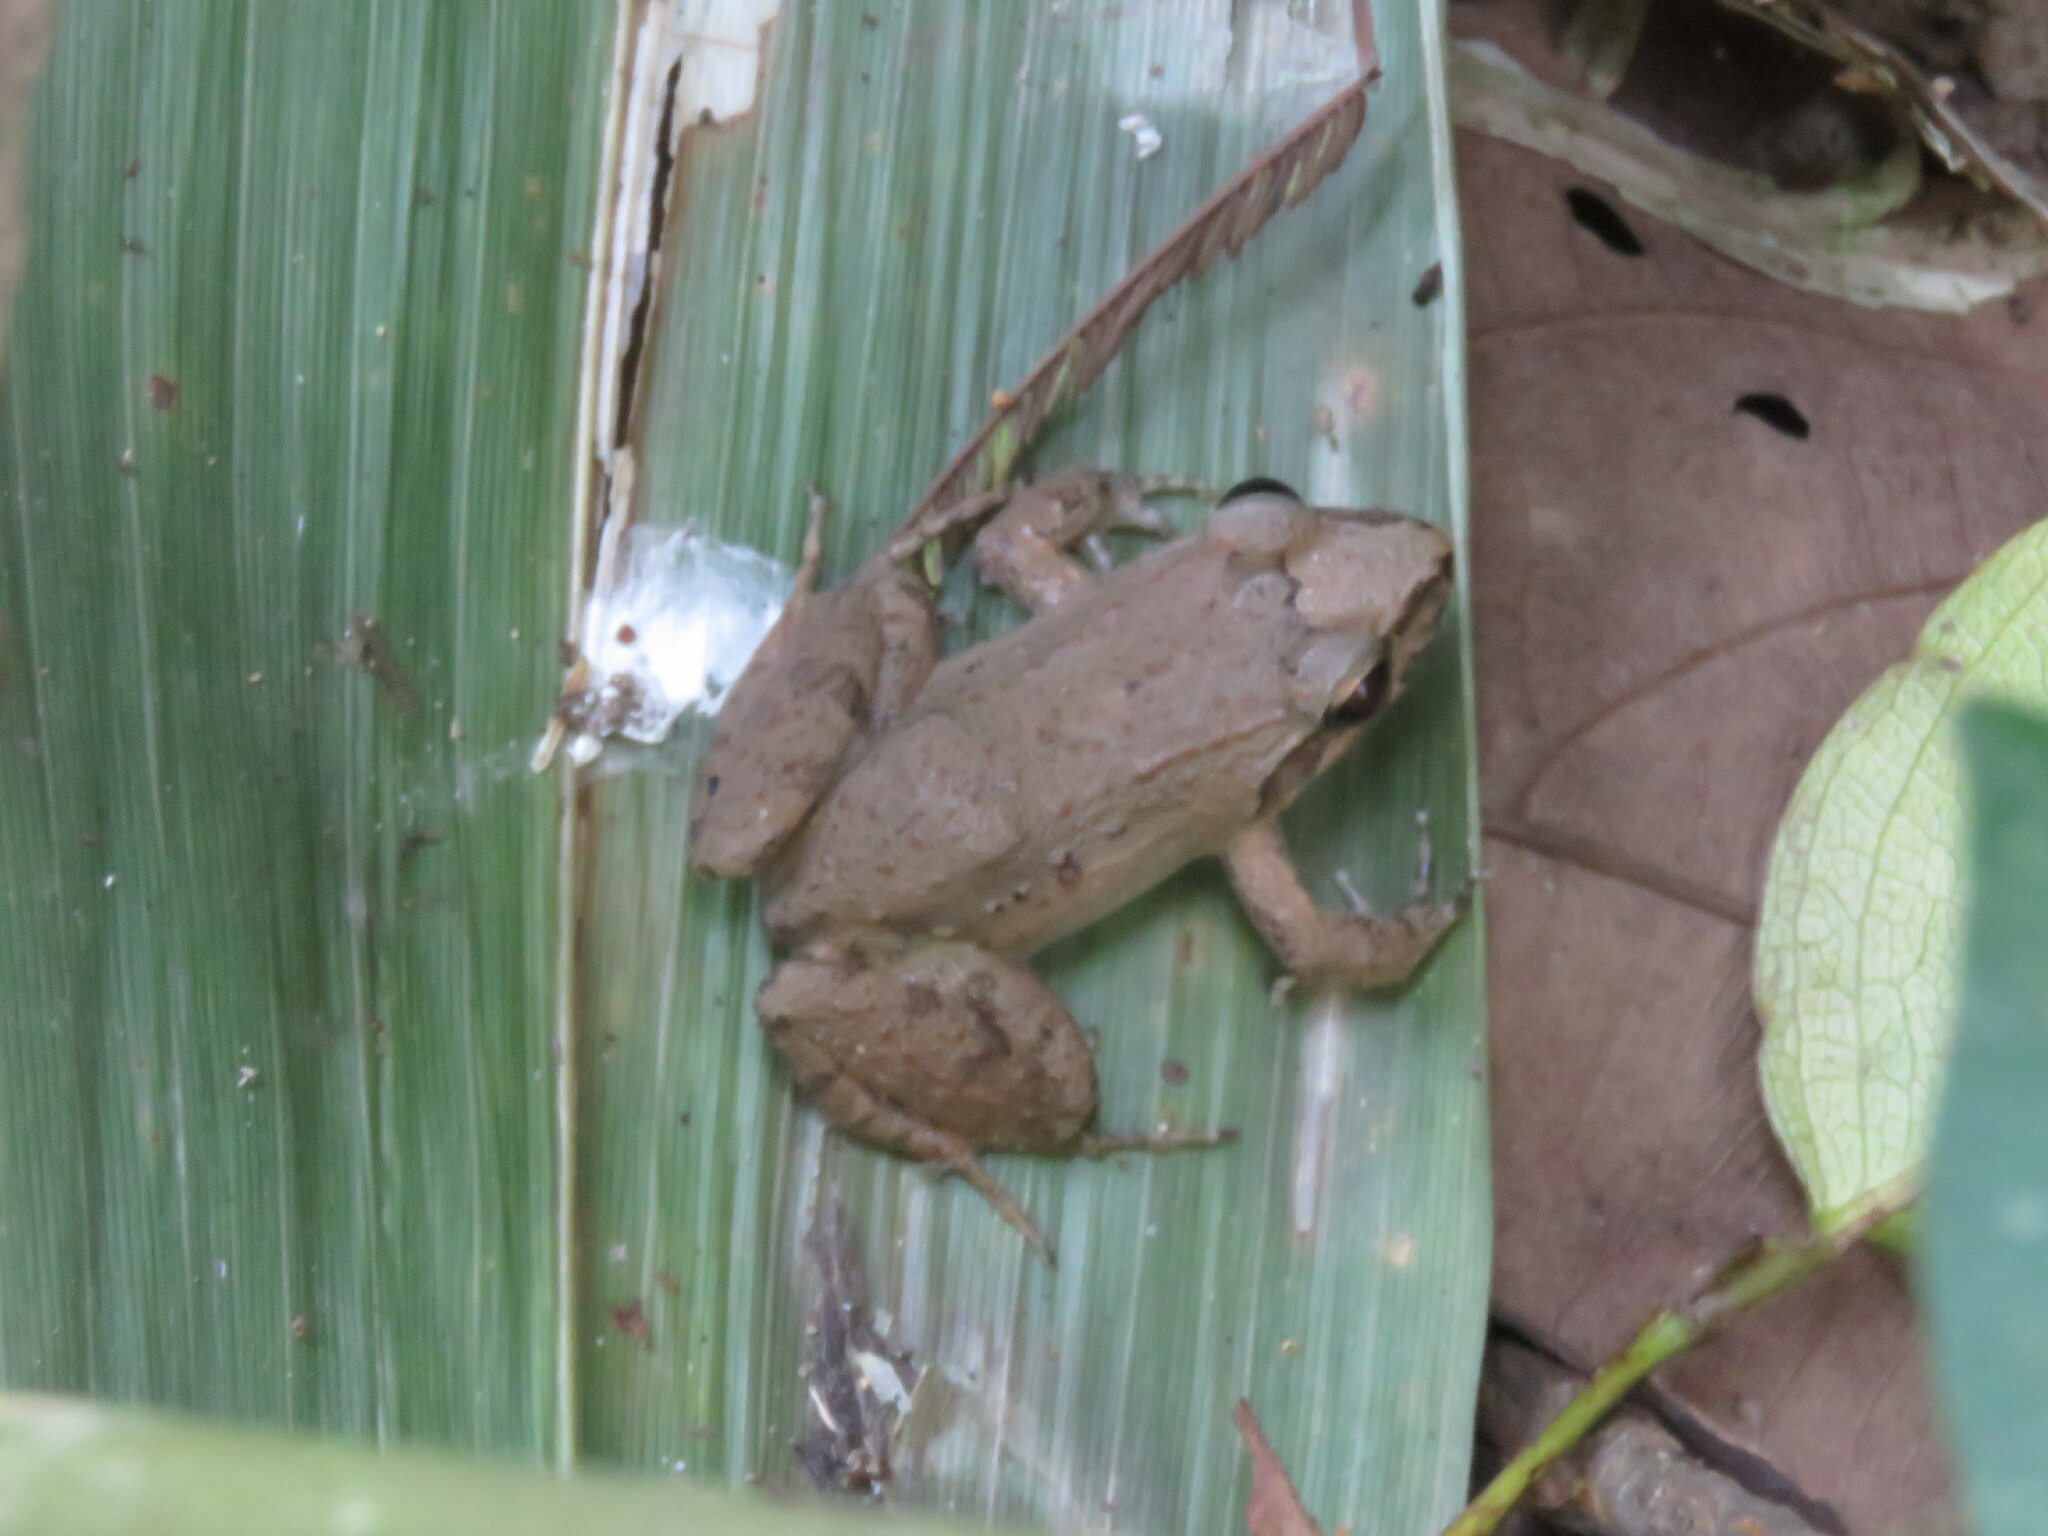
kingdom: Animalia
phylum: Chordata
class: Amphibia
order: Anura
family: Leptodactylidae
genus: Leptodactylus
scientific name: Leptodactylus petersii
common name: Peters' thin-toed frog
